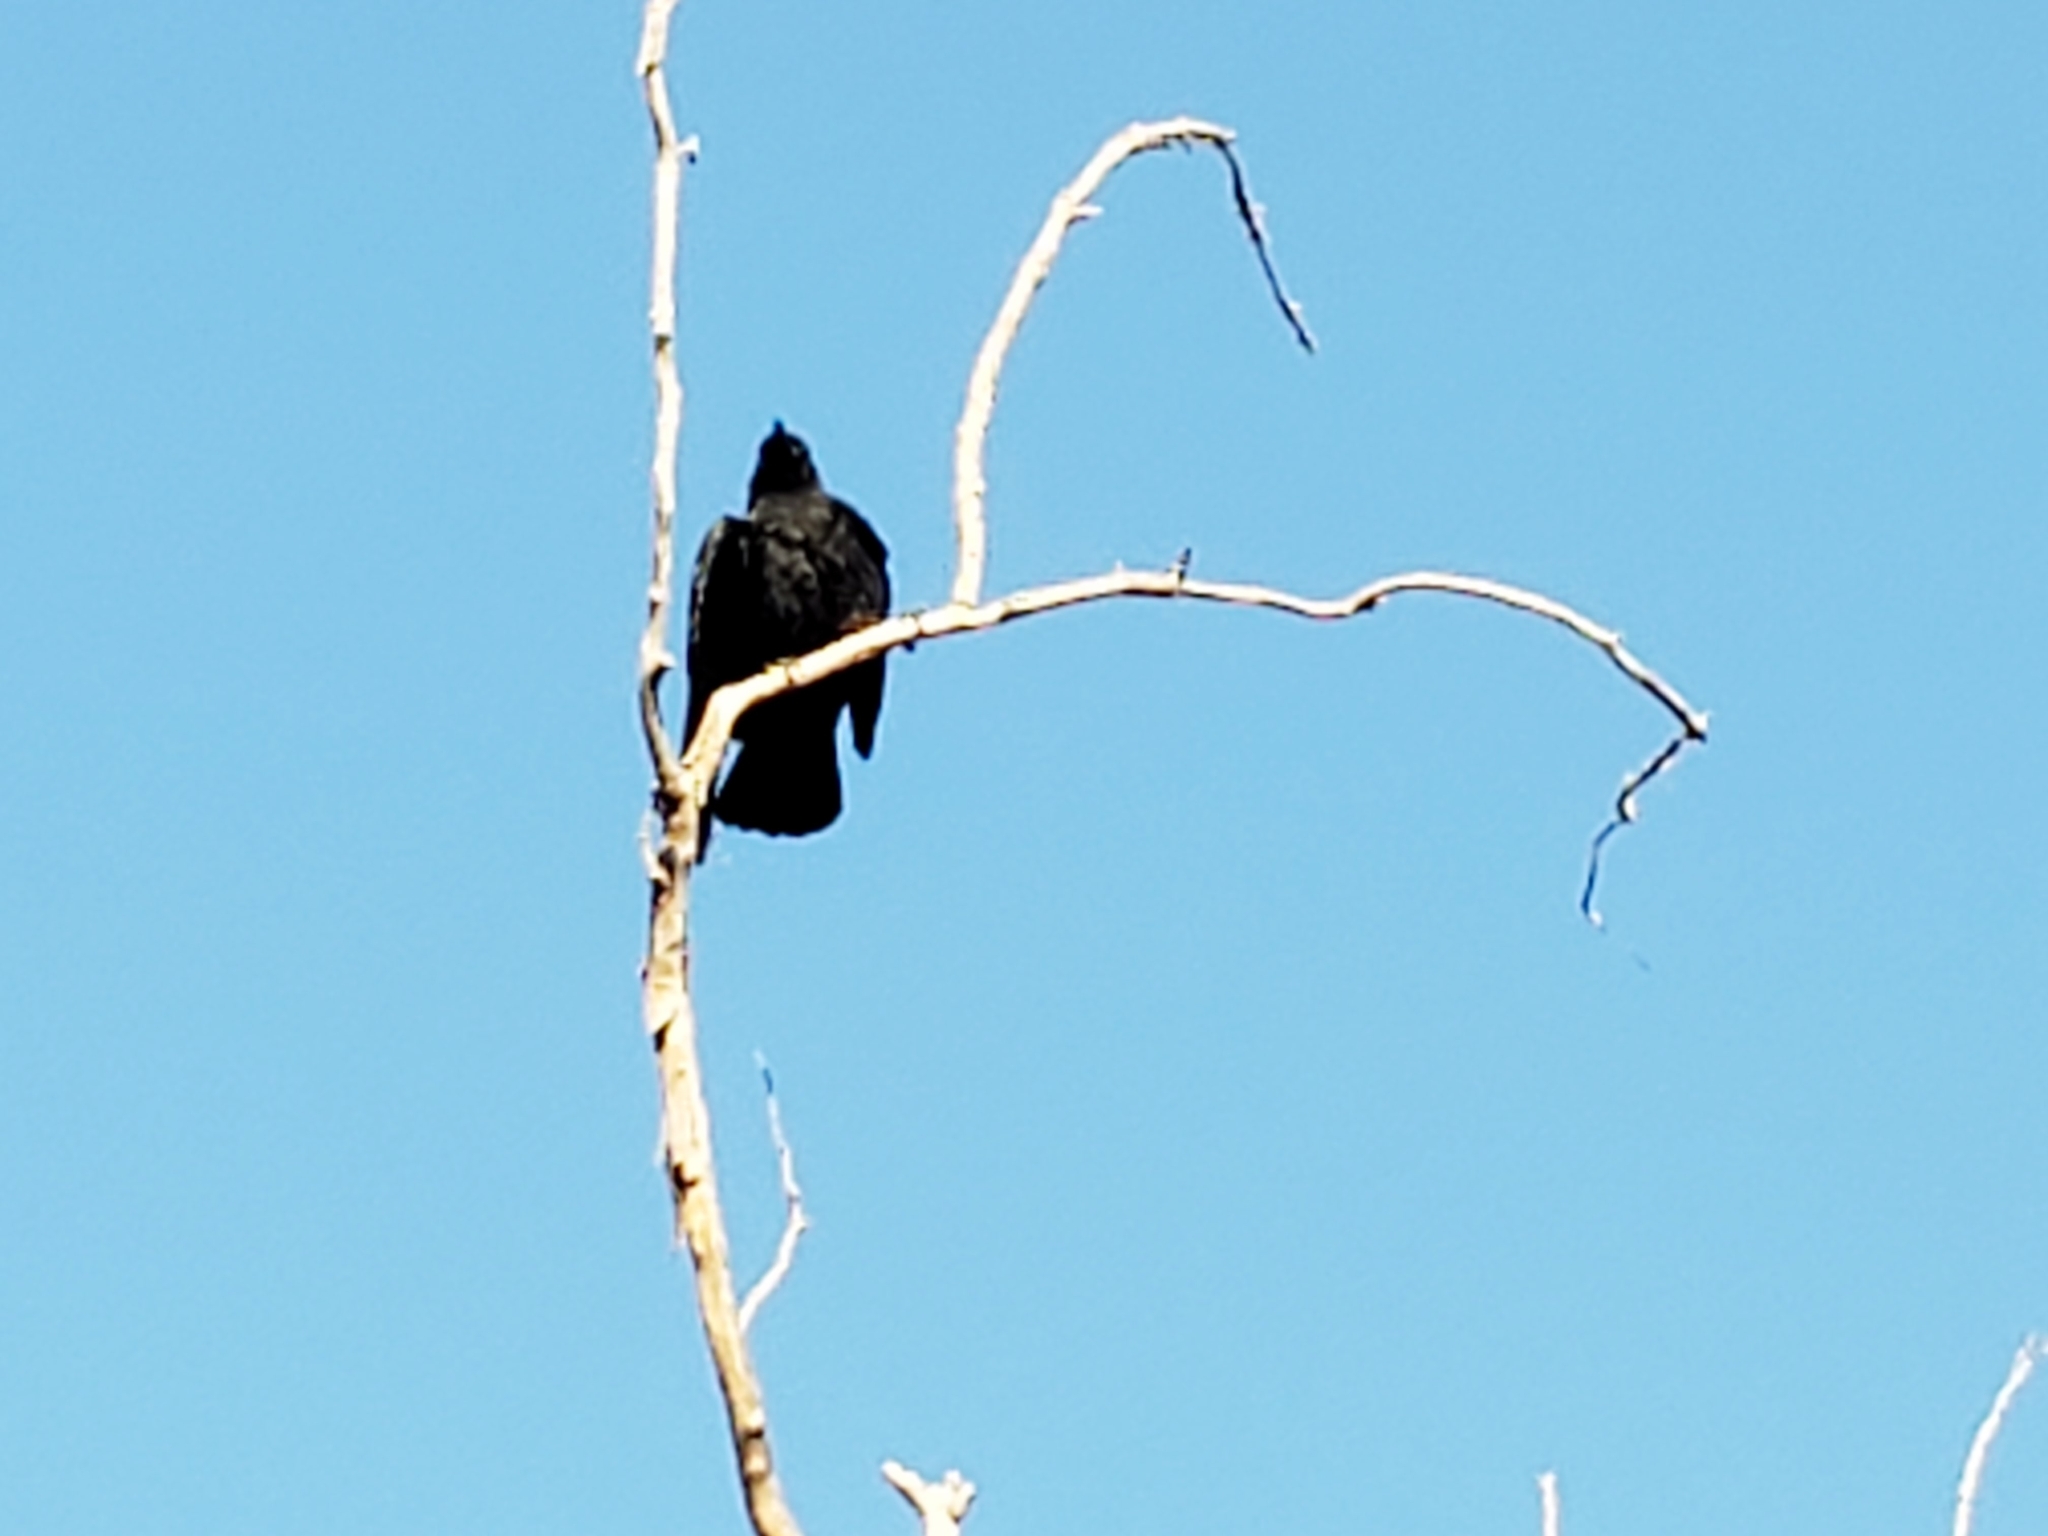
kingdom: Animalia
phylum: Chordata
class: Aves
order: Passeriformes
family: Corvidae
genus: Corvus
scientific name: Corvus brachyrhynchos
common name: American crow
